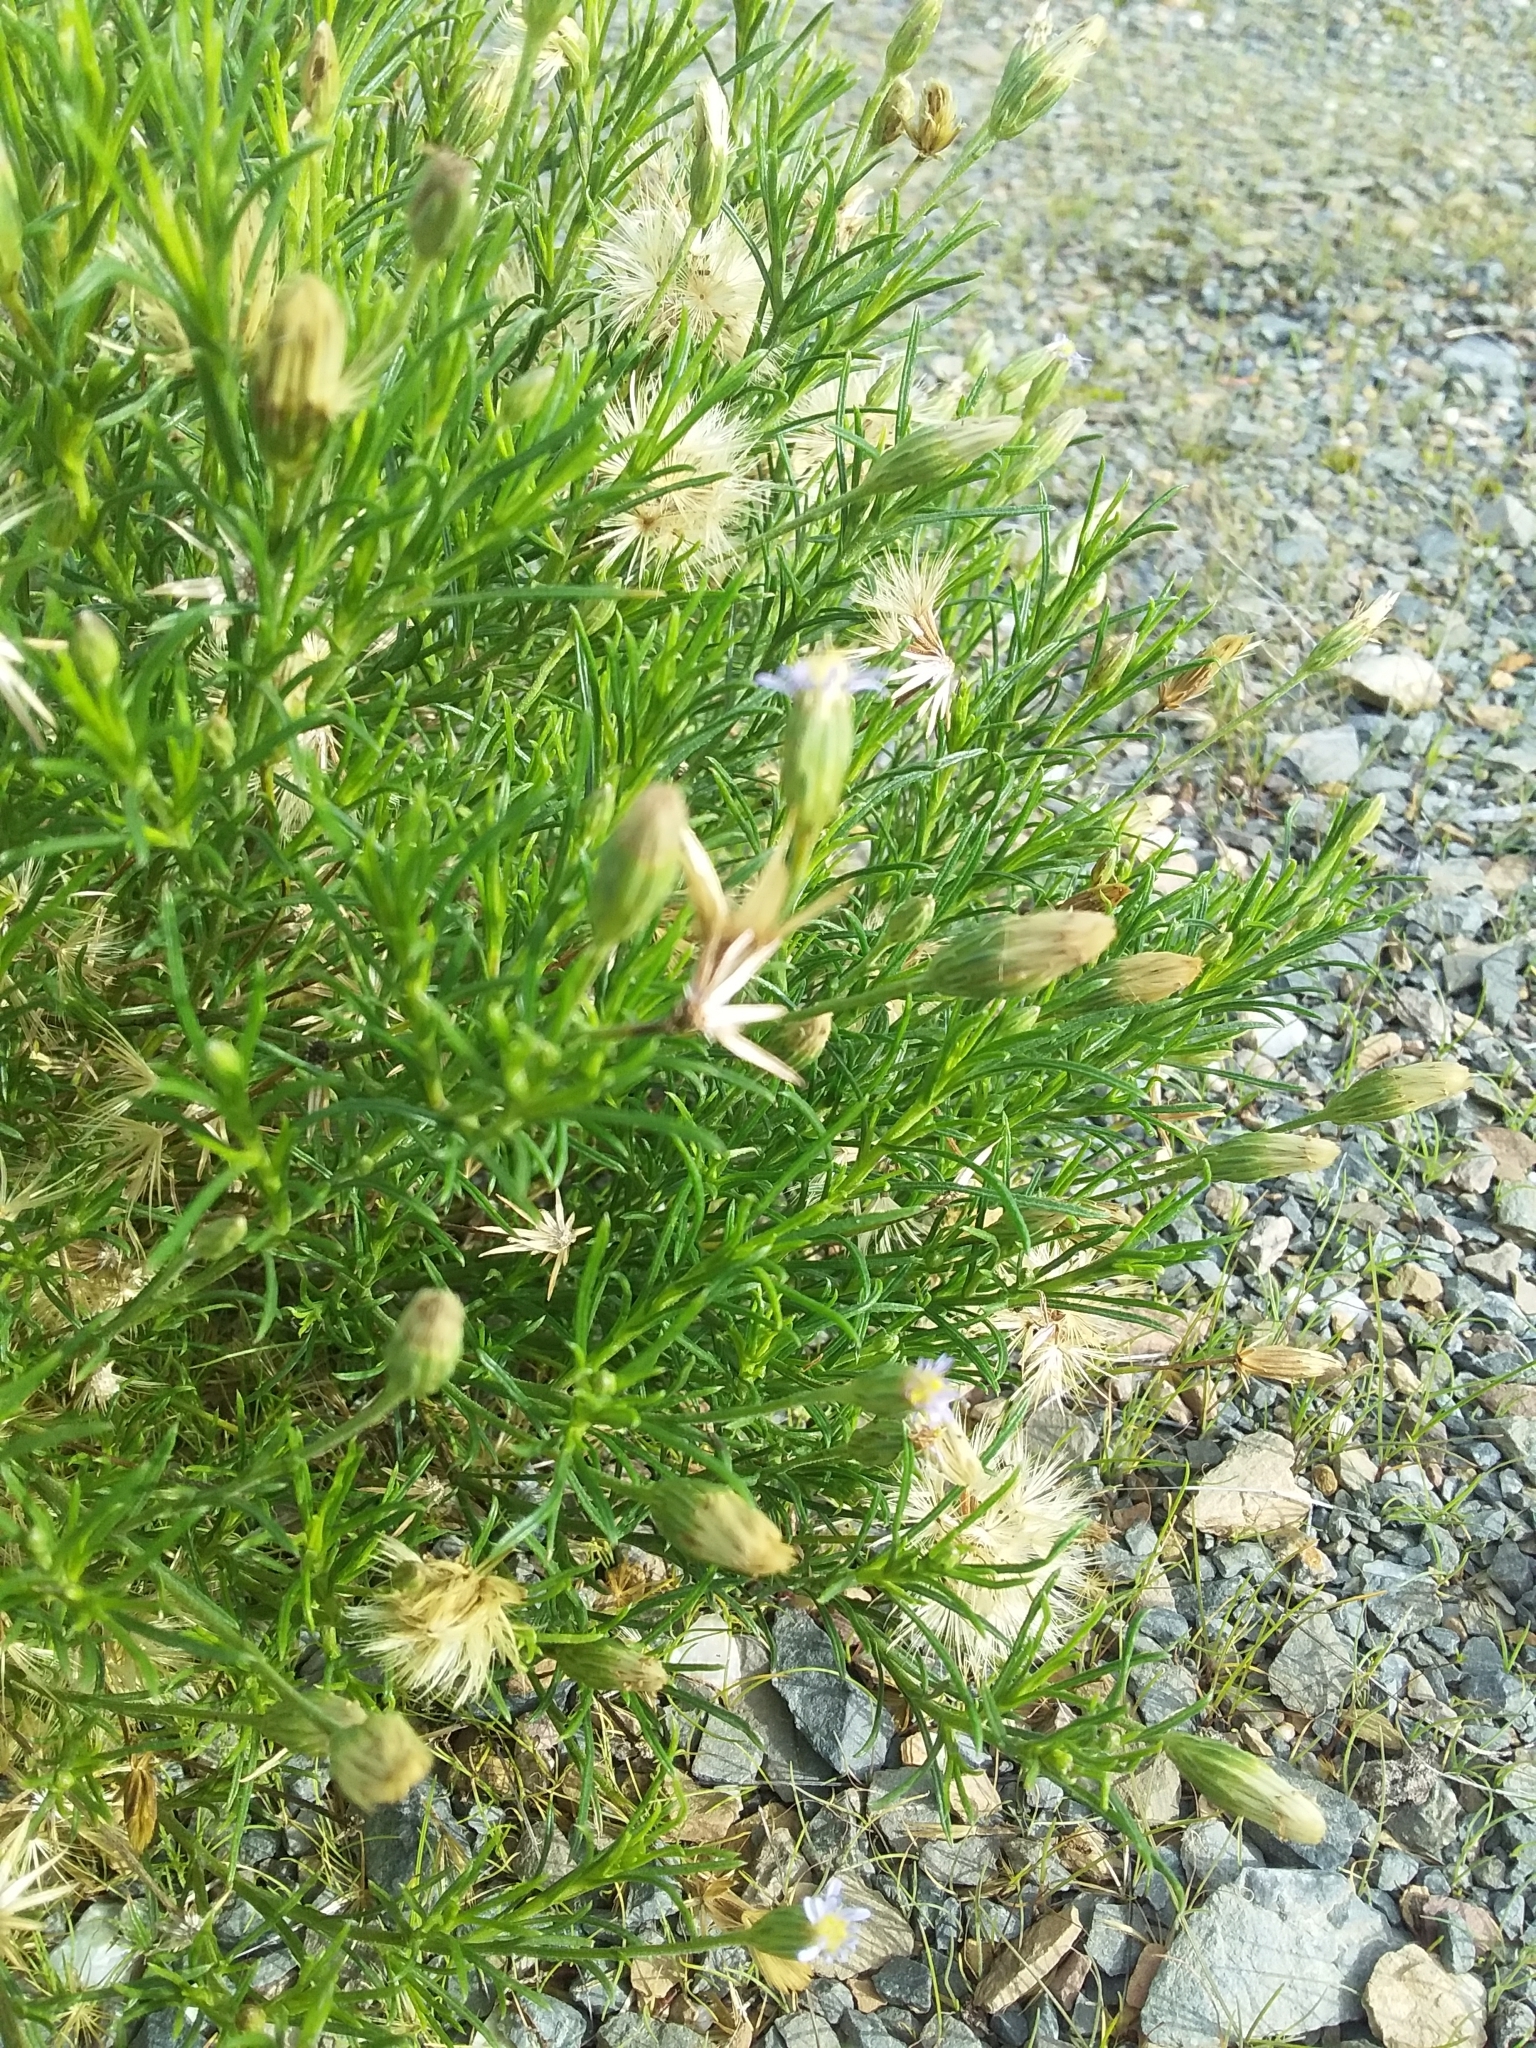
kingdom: Plantae
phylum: Tracheophyta
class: Magnoliopsida
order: Asterales
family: Asteraceae
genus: Vittadinia
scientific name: Vittadinia blackii
